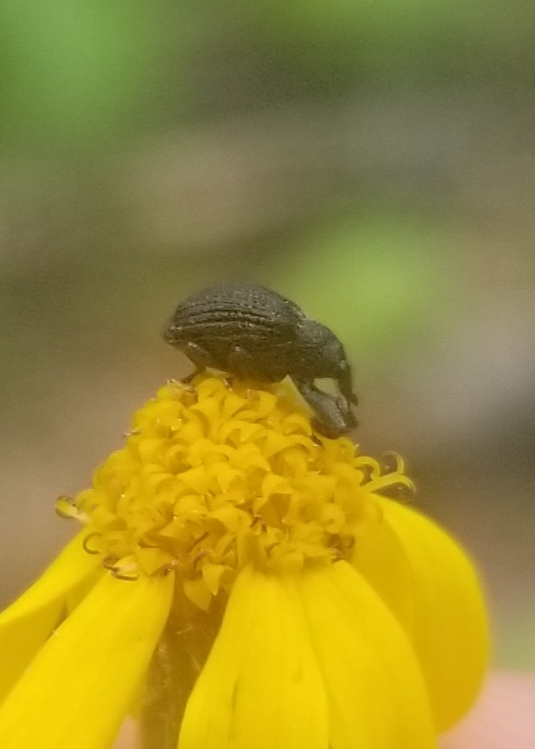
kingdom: Animalia
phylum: Arthropoda
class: Insecta
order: Coleoptera
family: Curculionidae
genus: Odontopus
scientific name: Odontopus calceatus
